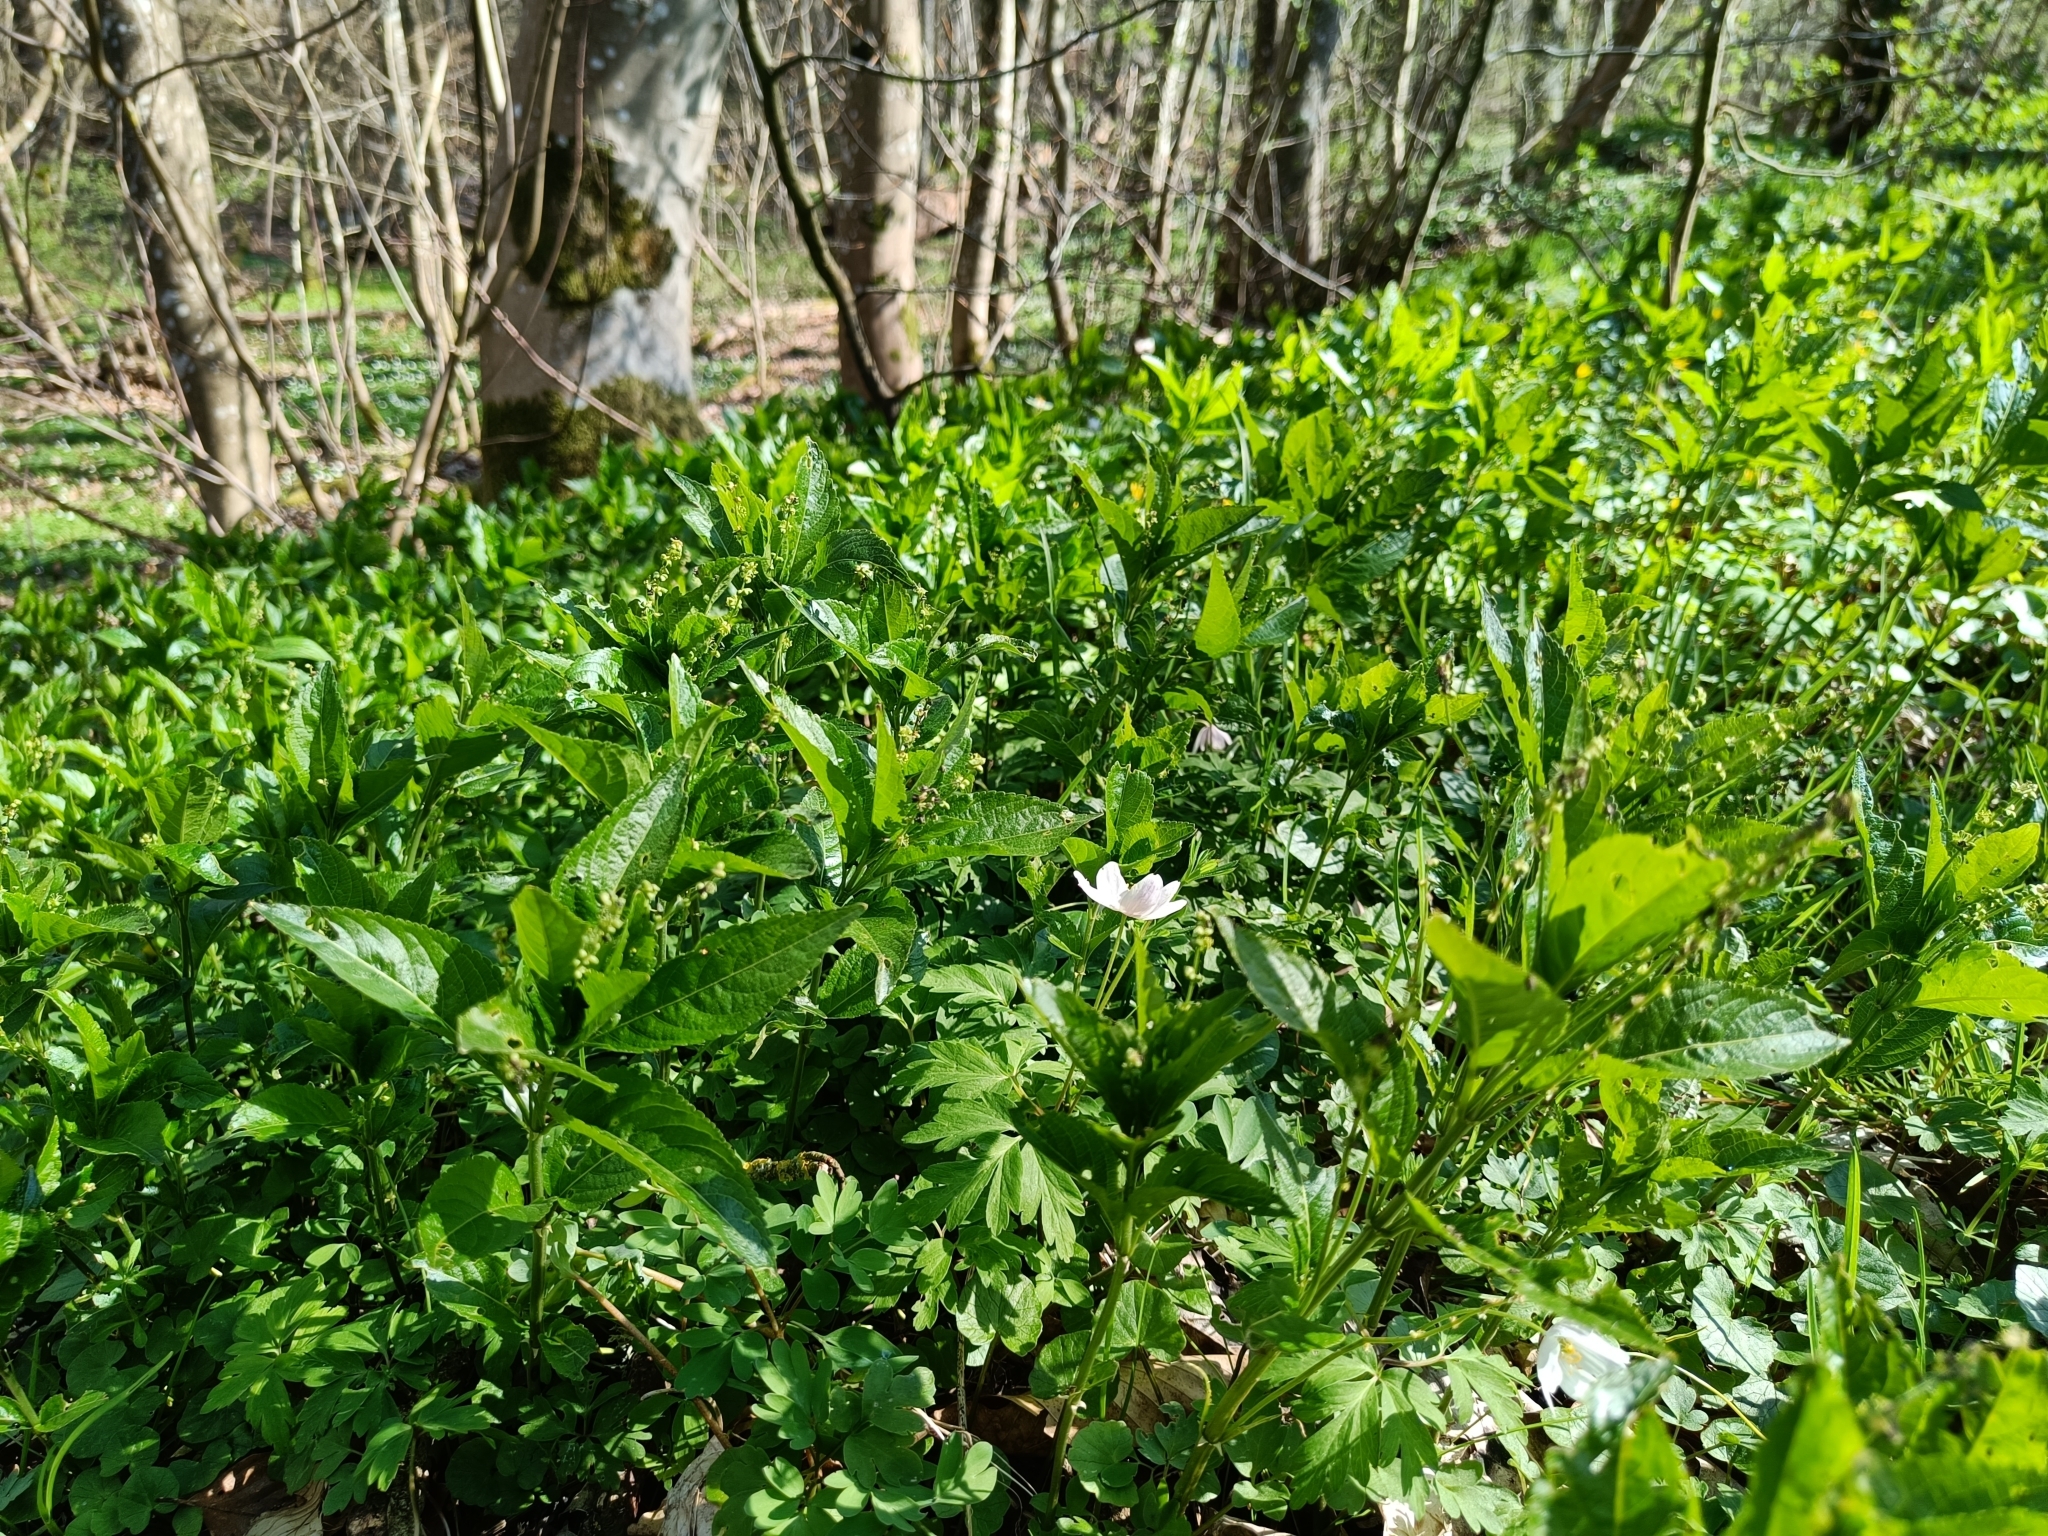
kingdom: Plantae
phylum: Tracheophyta
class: Magnoliopsida
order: Malpighiales
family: Euphorbiaceae
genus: Mercurialis
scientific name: Mercurialis perennis
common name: Dog mercury
